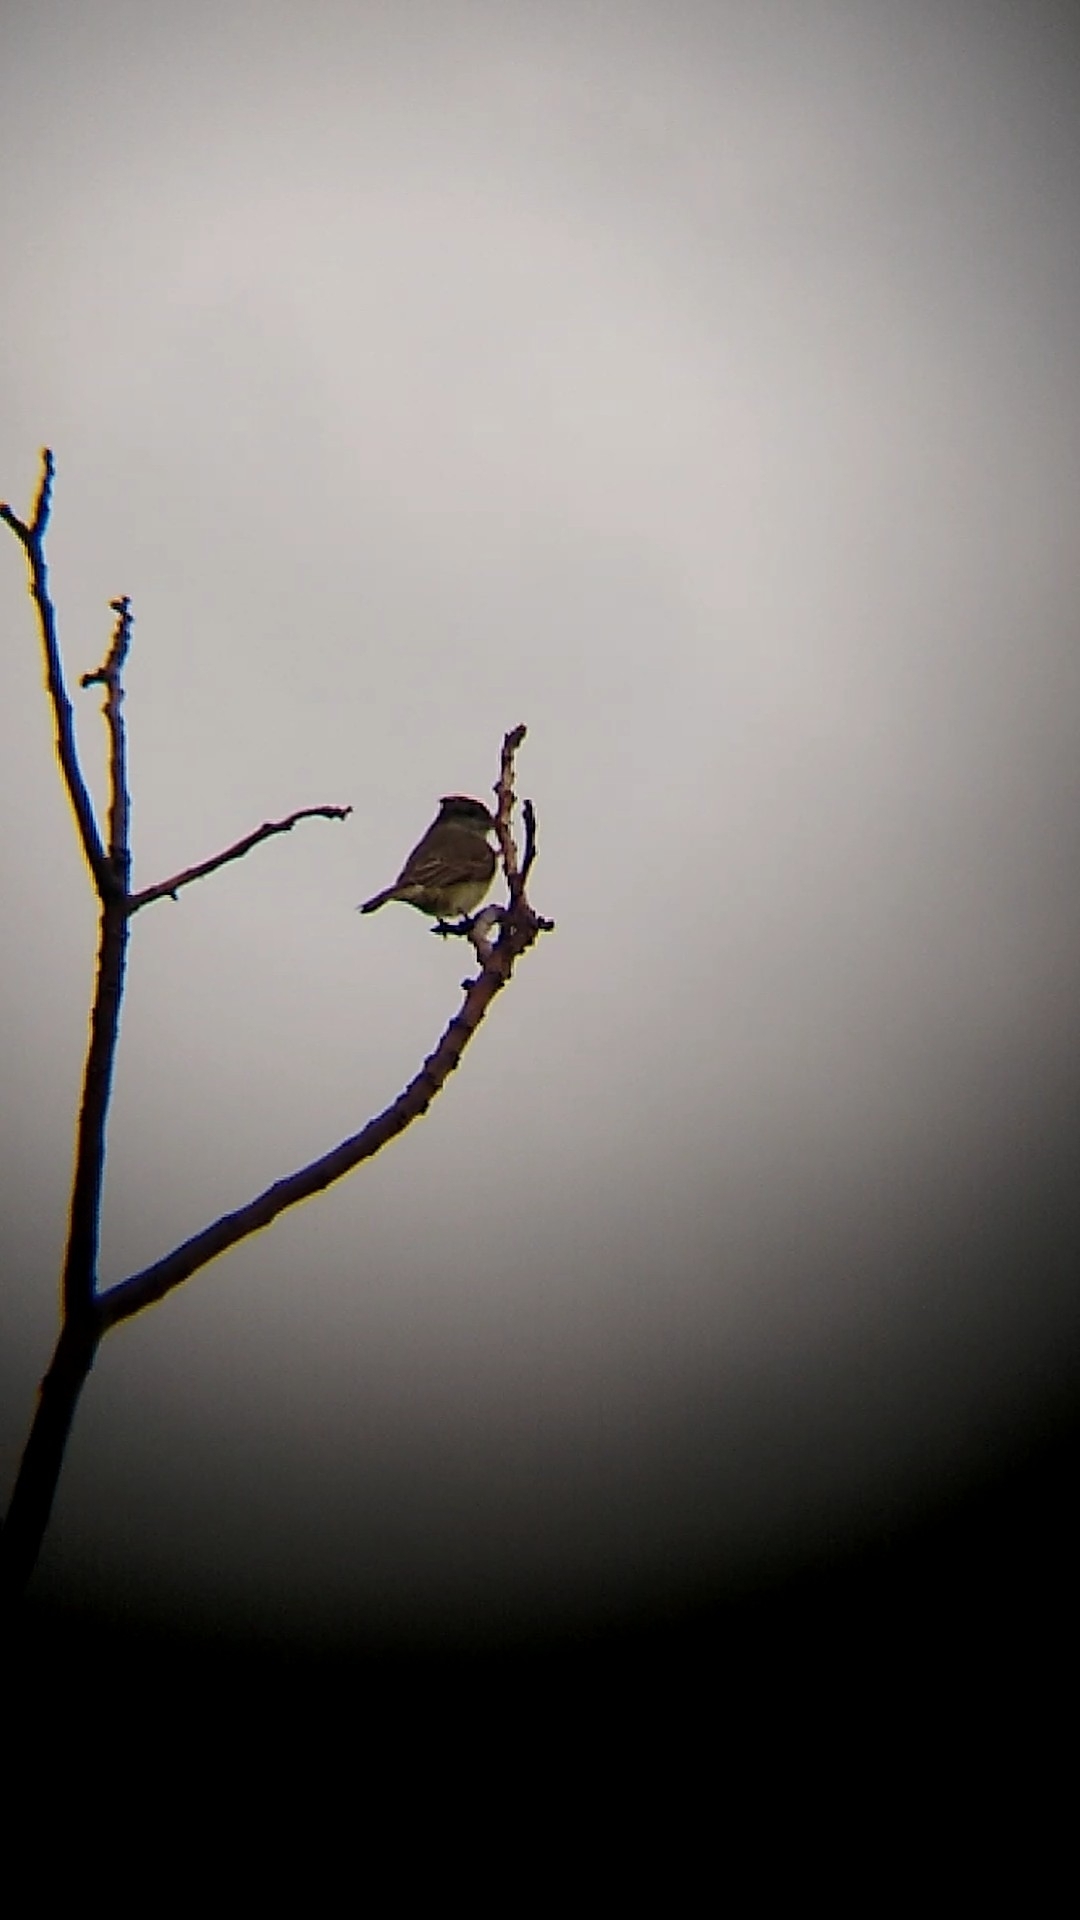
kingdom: Animalia
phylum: Chordata
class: Aves
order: Passeriformes
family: Tyrannidae
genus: Empidonomus
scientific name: Empidonomus aurantioatrocristatus
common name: Crowned slaty flycatcher
